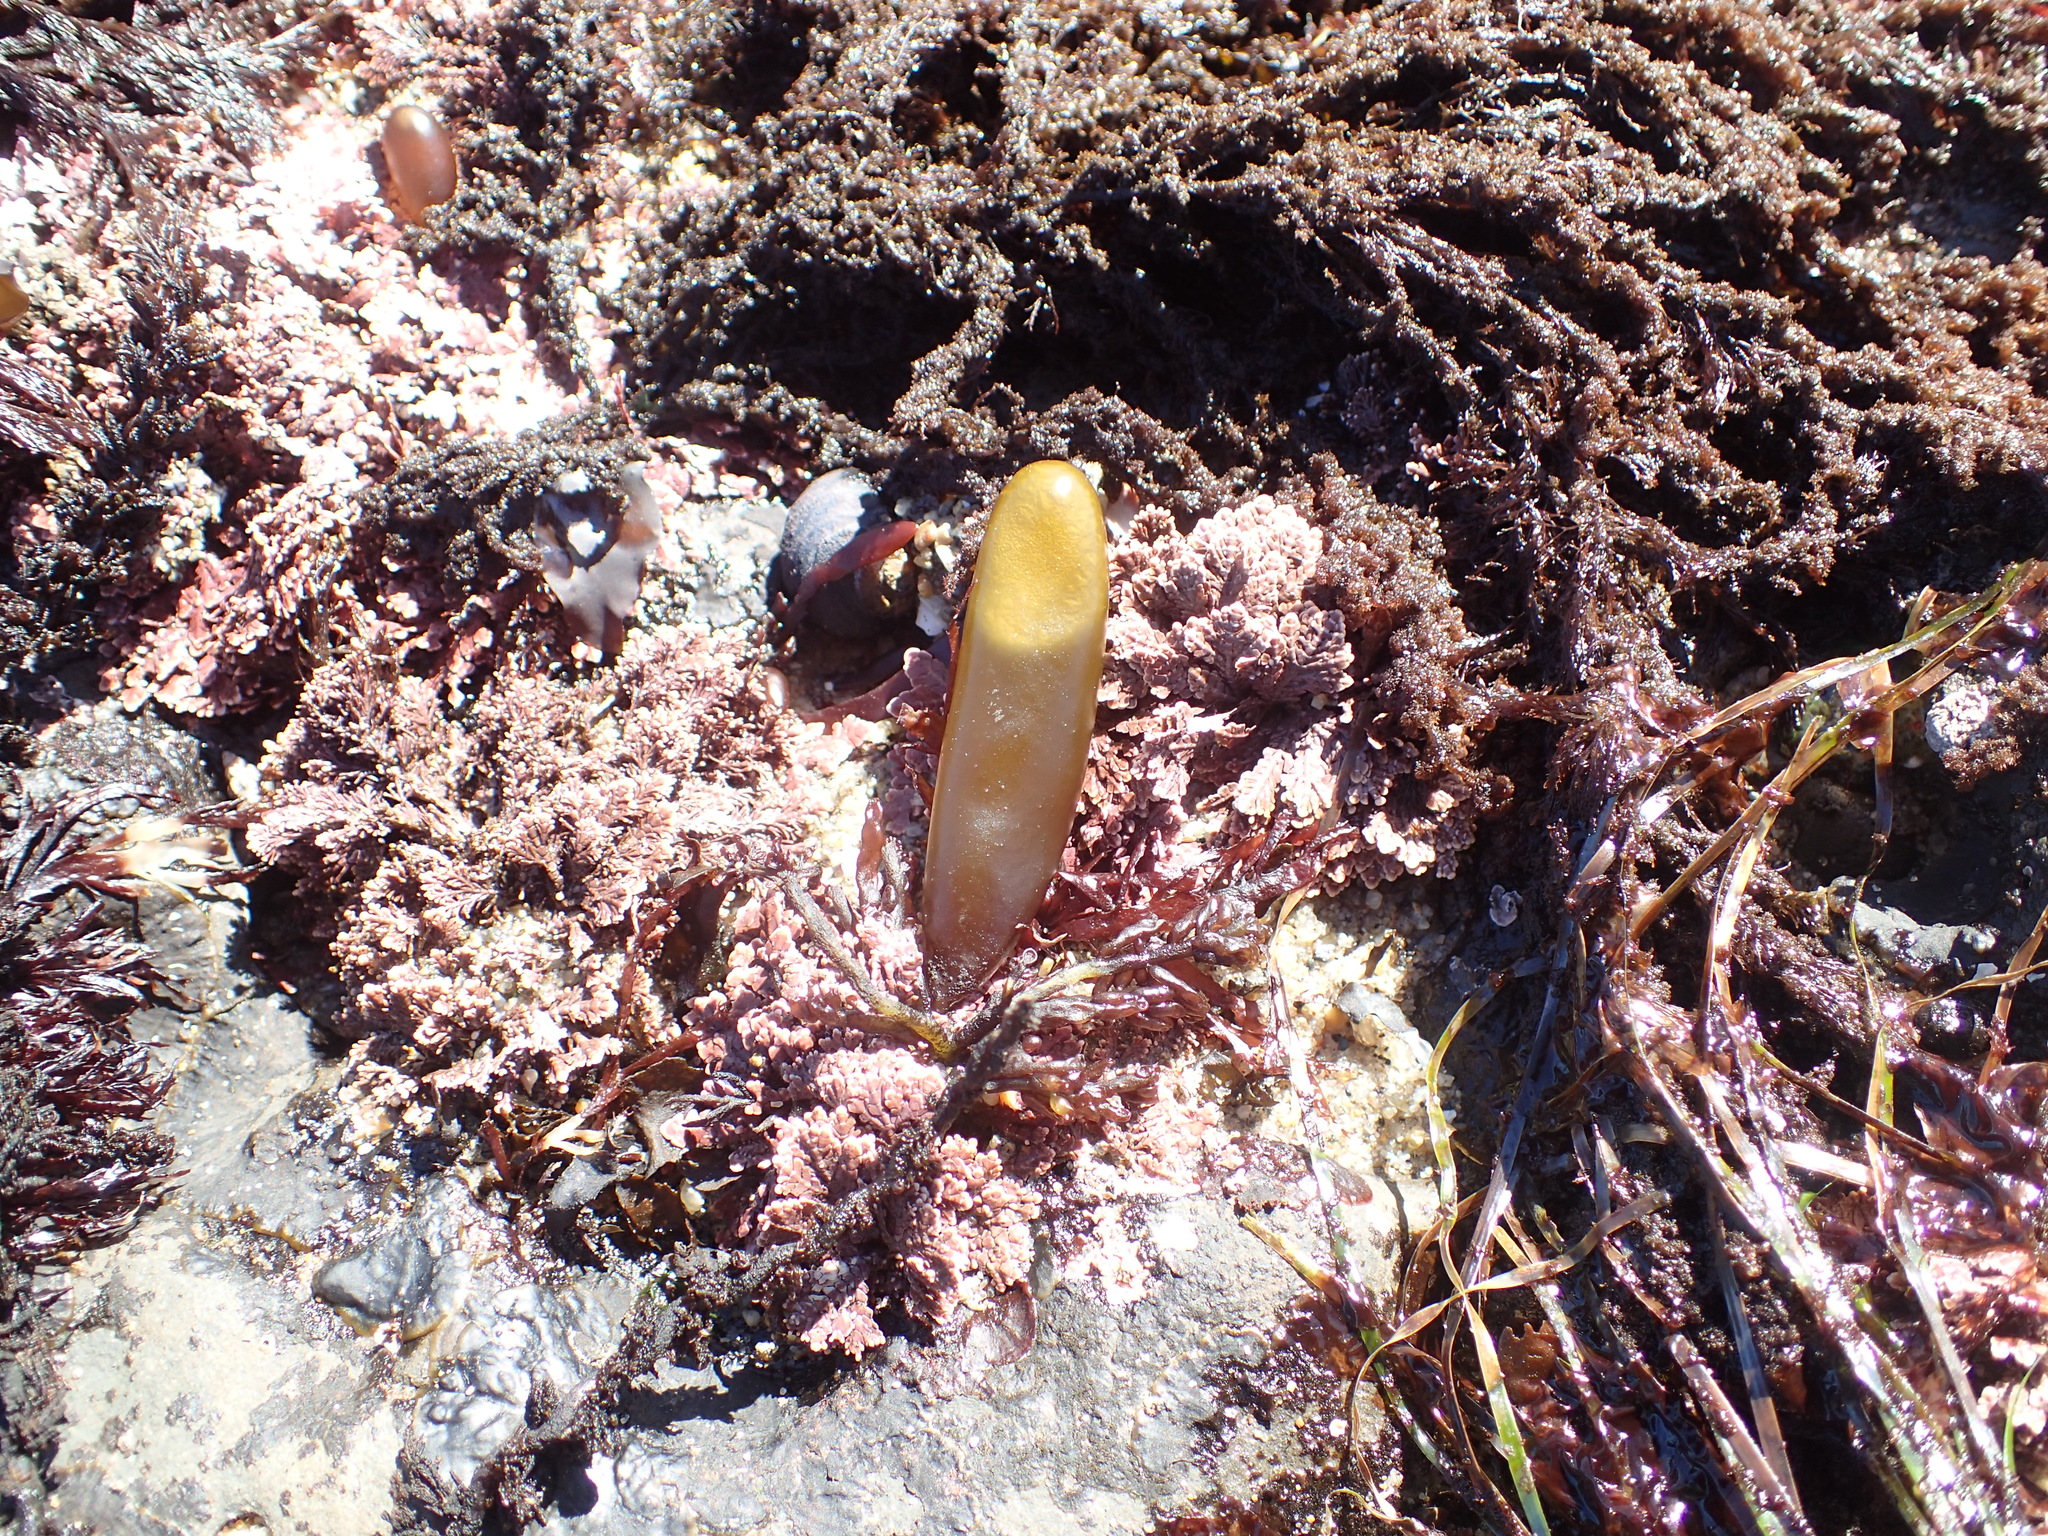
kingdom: Plantae
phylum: Rhodophyta
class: Florideophyceae
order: Palmariales
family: Palmariaceae
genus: Halosaccion
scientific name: Halosaccion glandiforme
